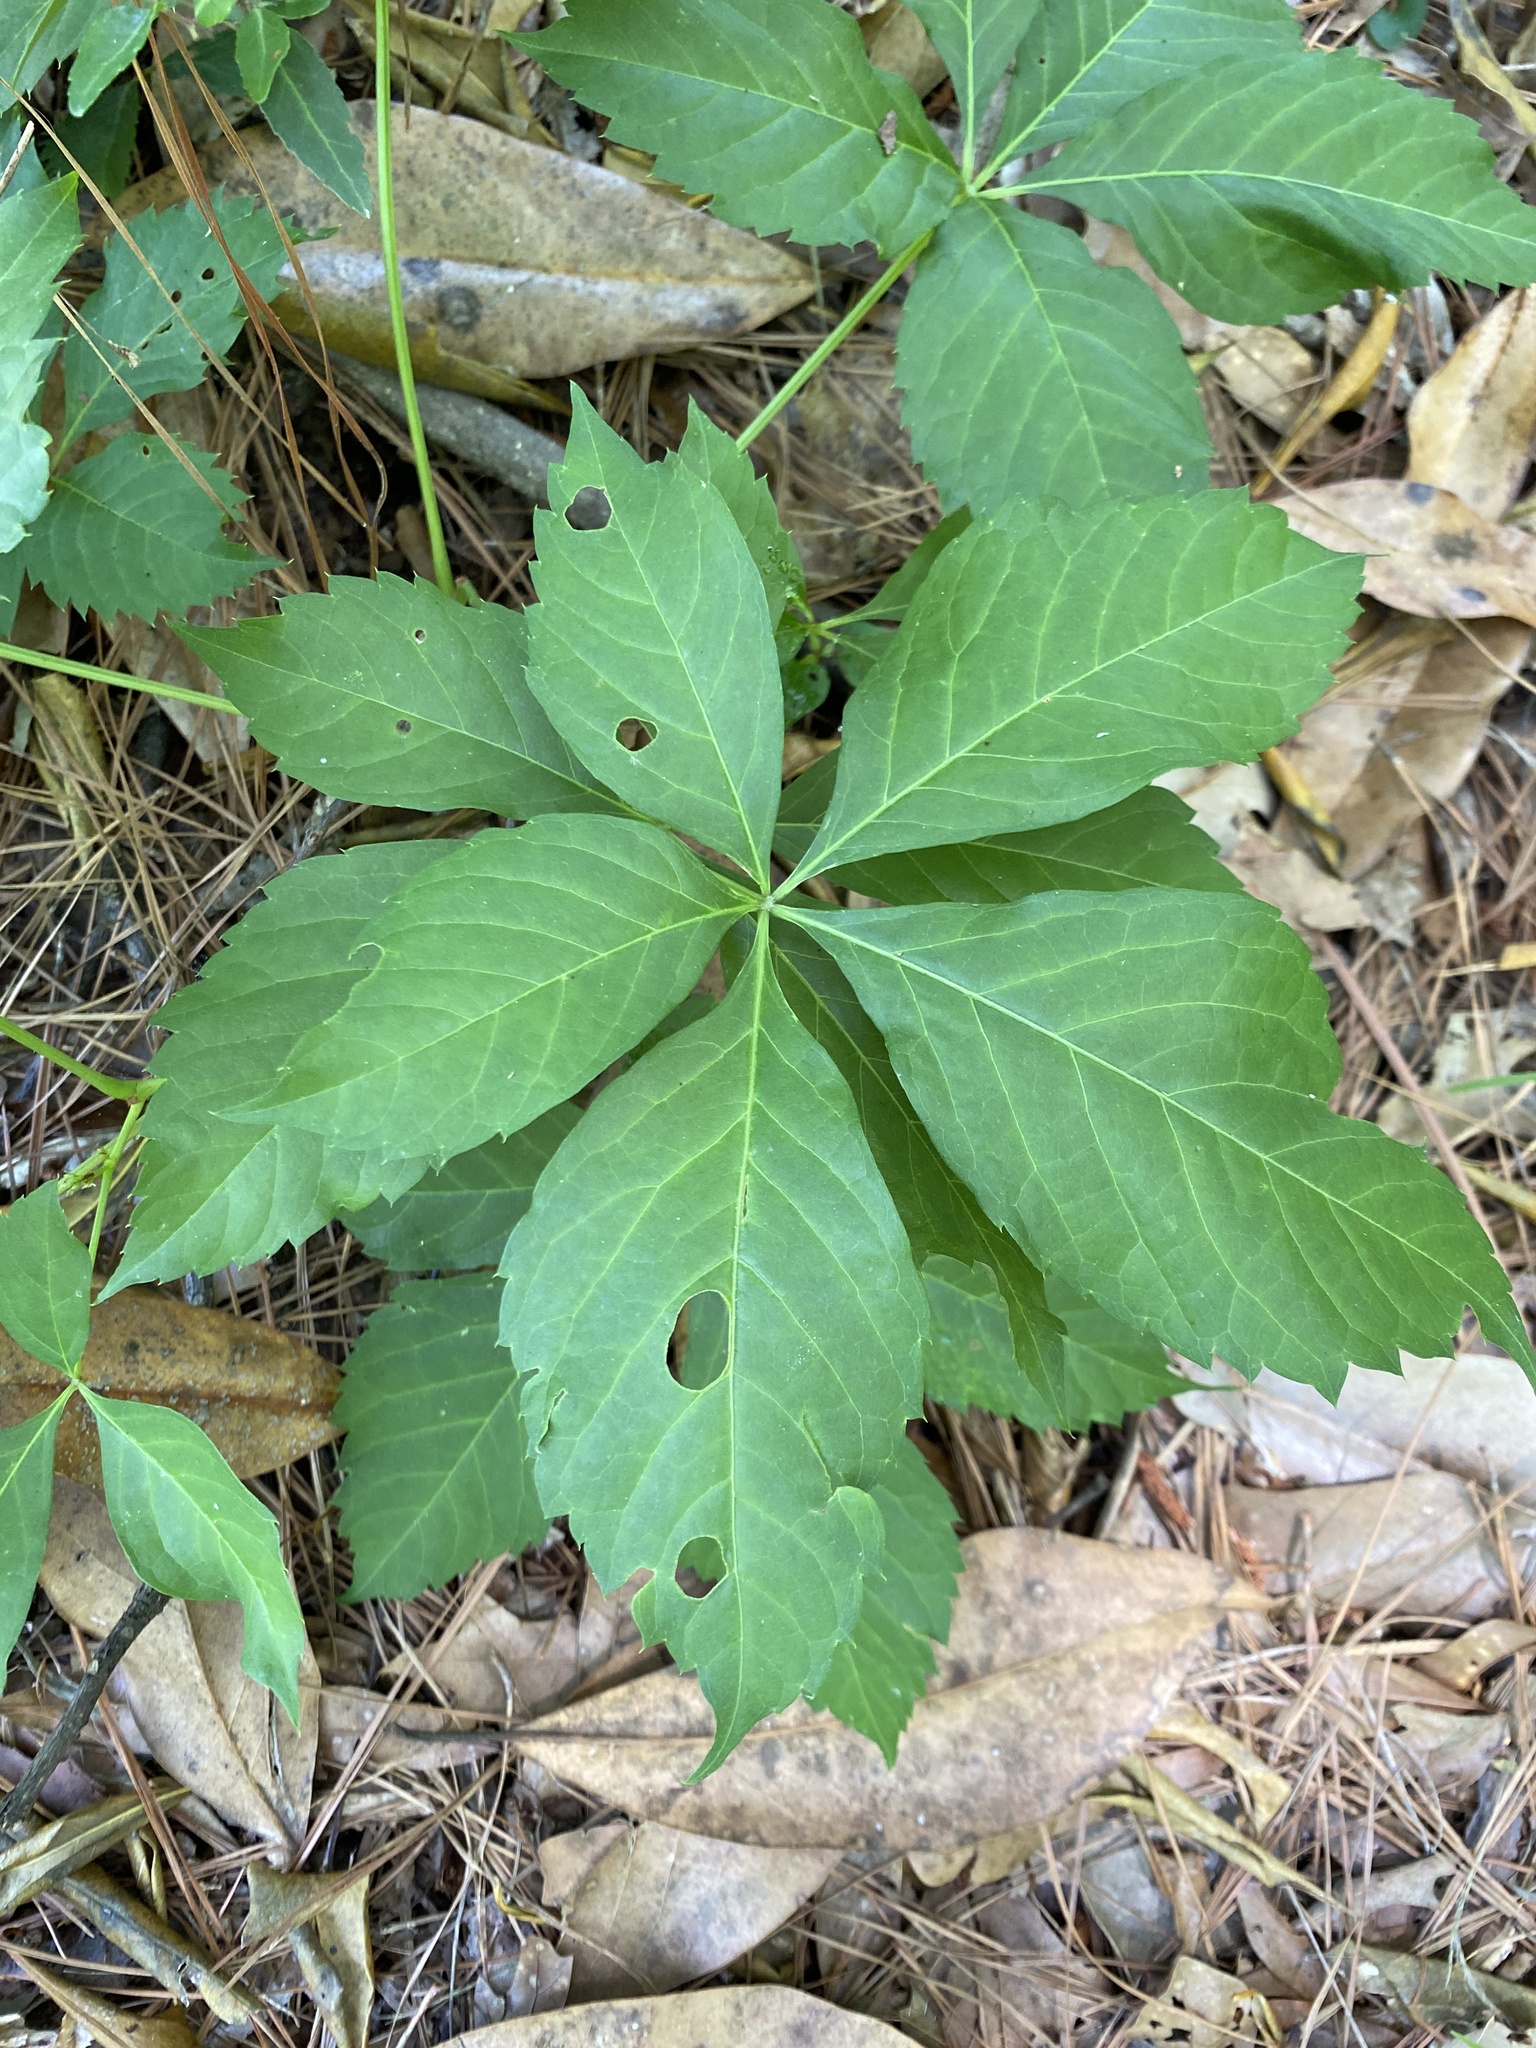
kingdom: Plantae
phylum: Tracheophyta
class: Magnoliopsida
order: Vitales
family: Vitaceae
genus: Parthenocissus
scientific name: Parthenocissus quinquefolia
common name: Virginia-creeper
